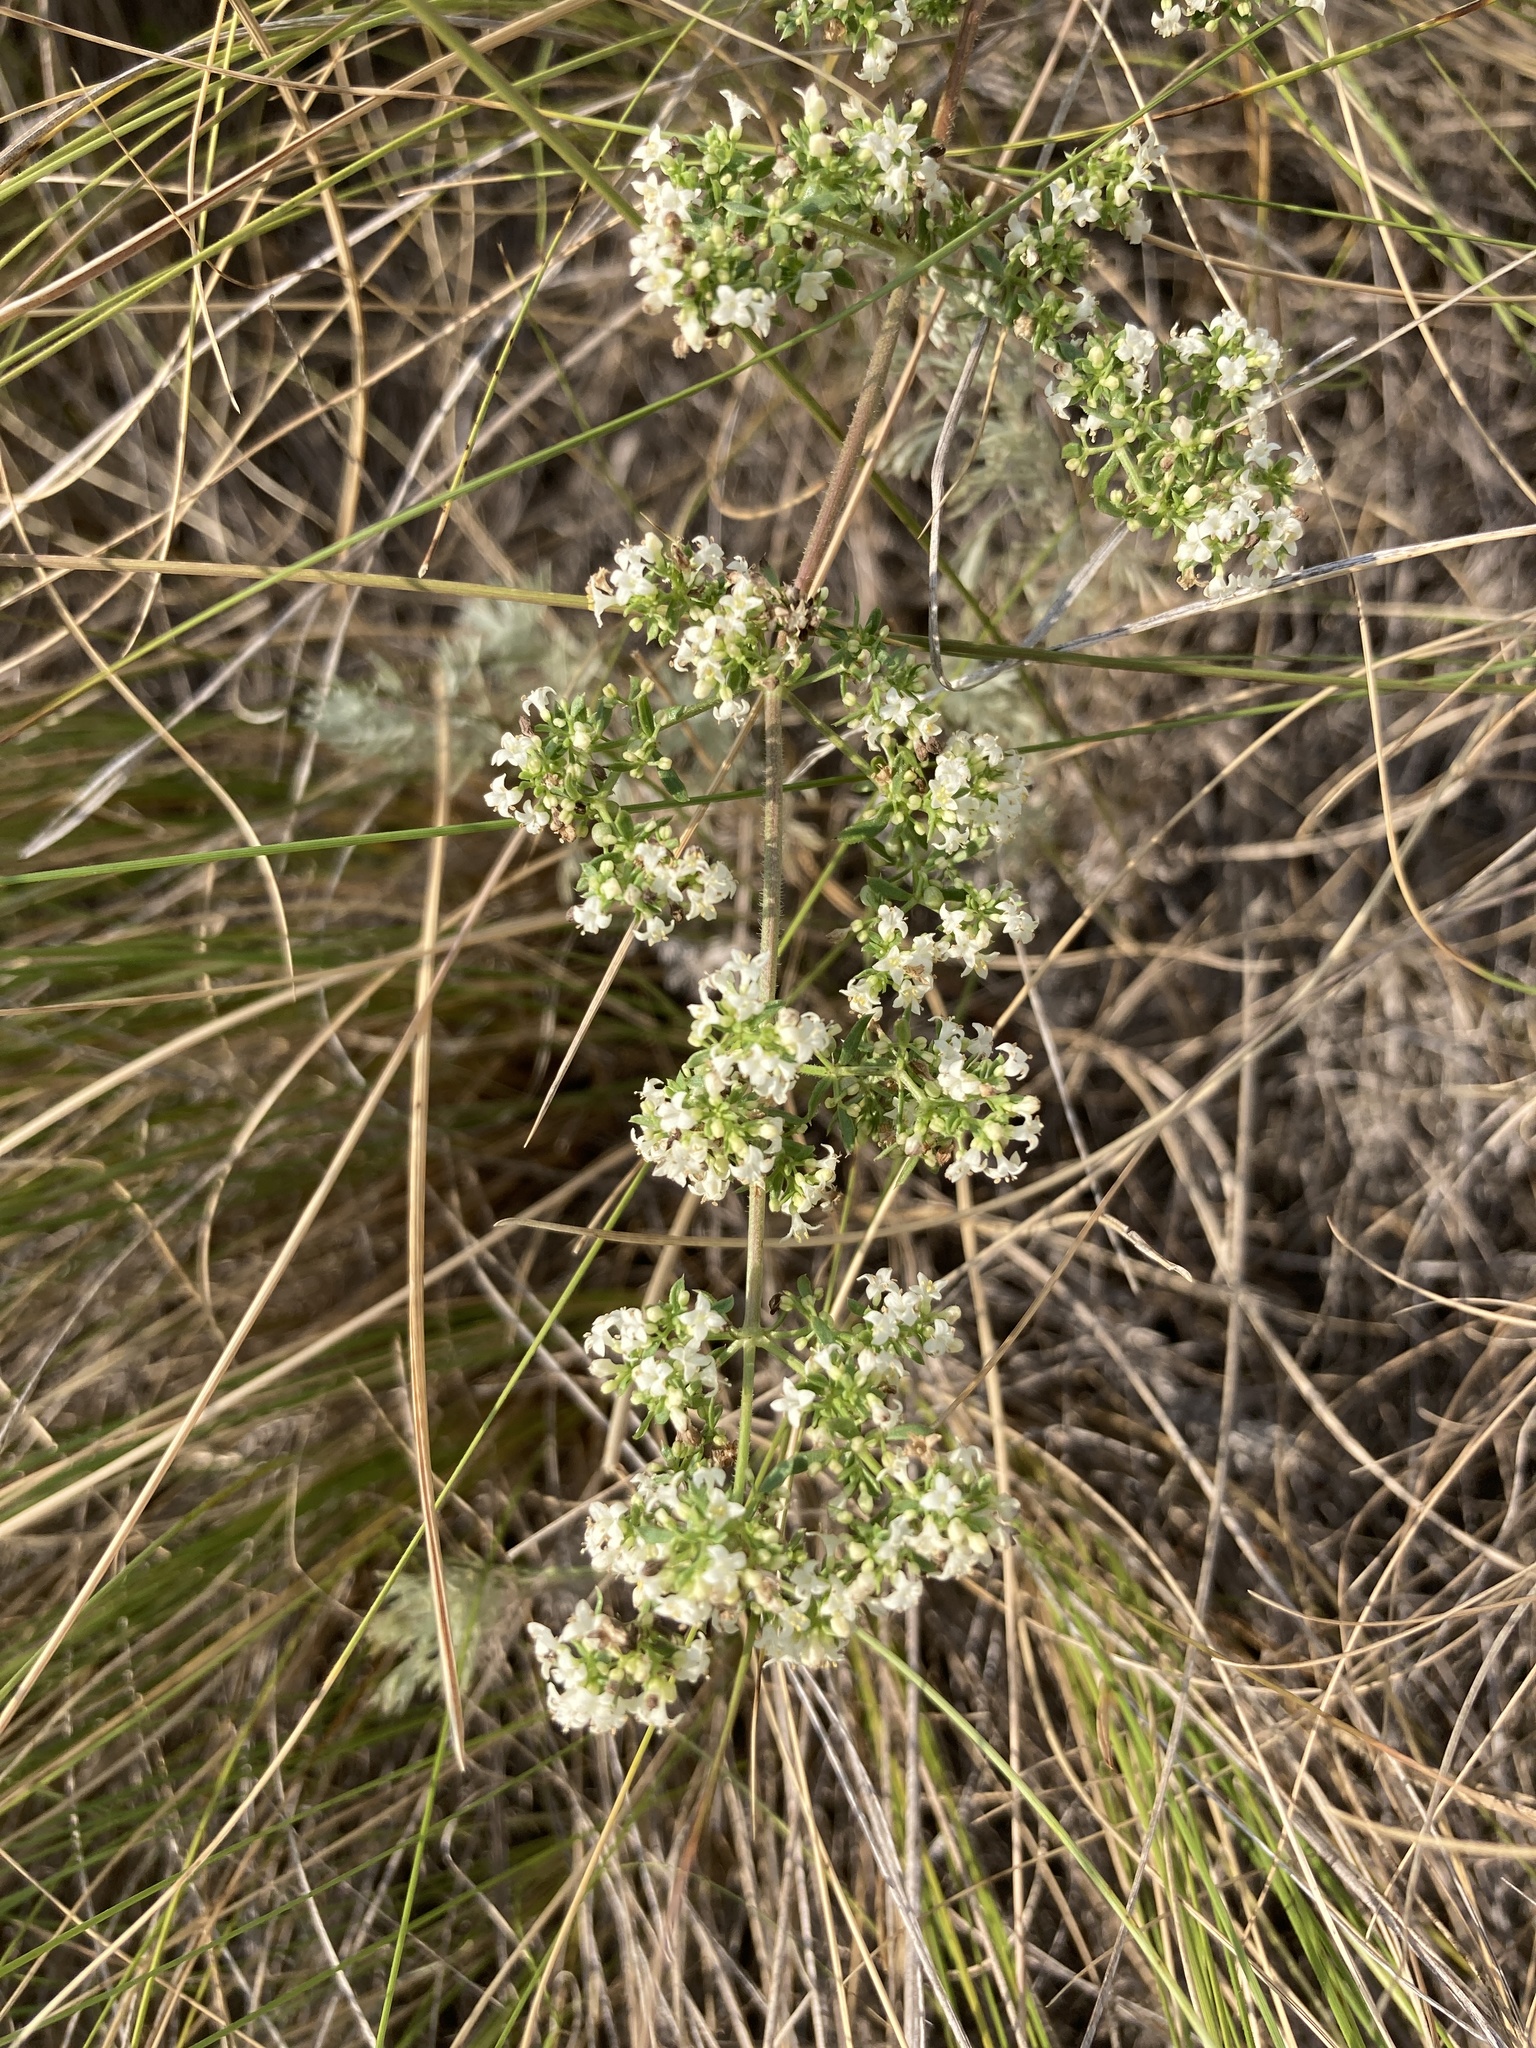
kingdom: Plantae
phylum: Tracheophyta
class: Magnoliopsida
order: Gentianales
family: Rubiaceae
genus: Galium
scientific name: Galium humifusum
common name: Spreading bedstraw
